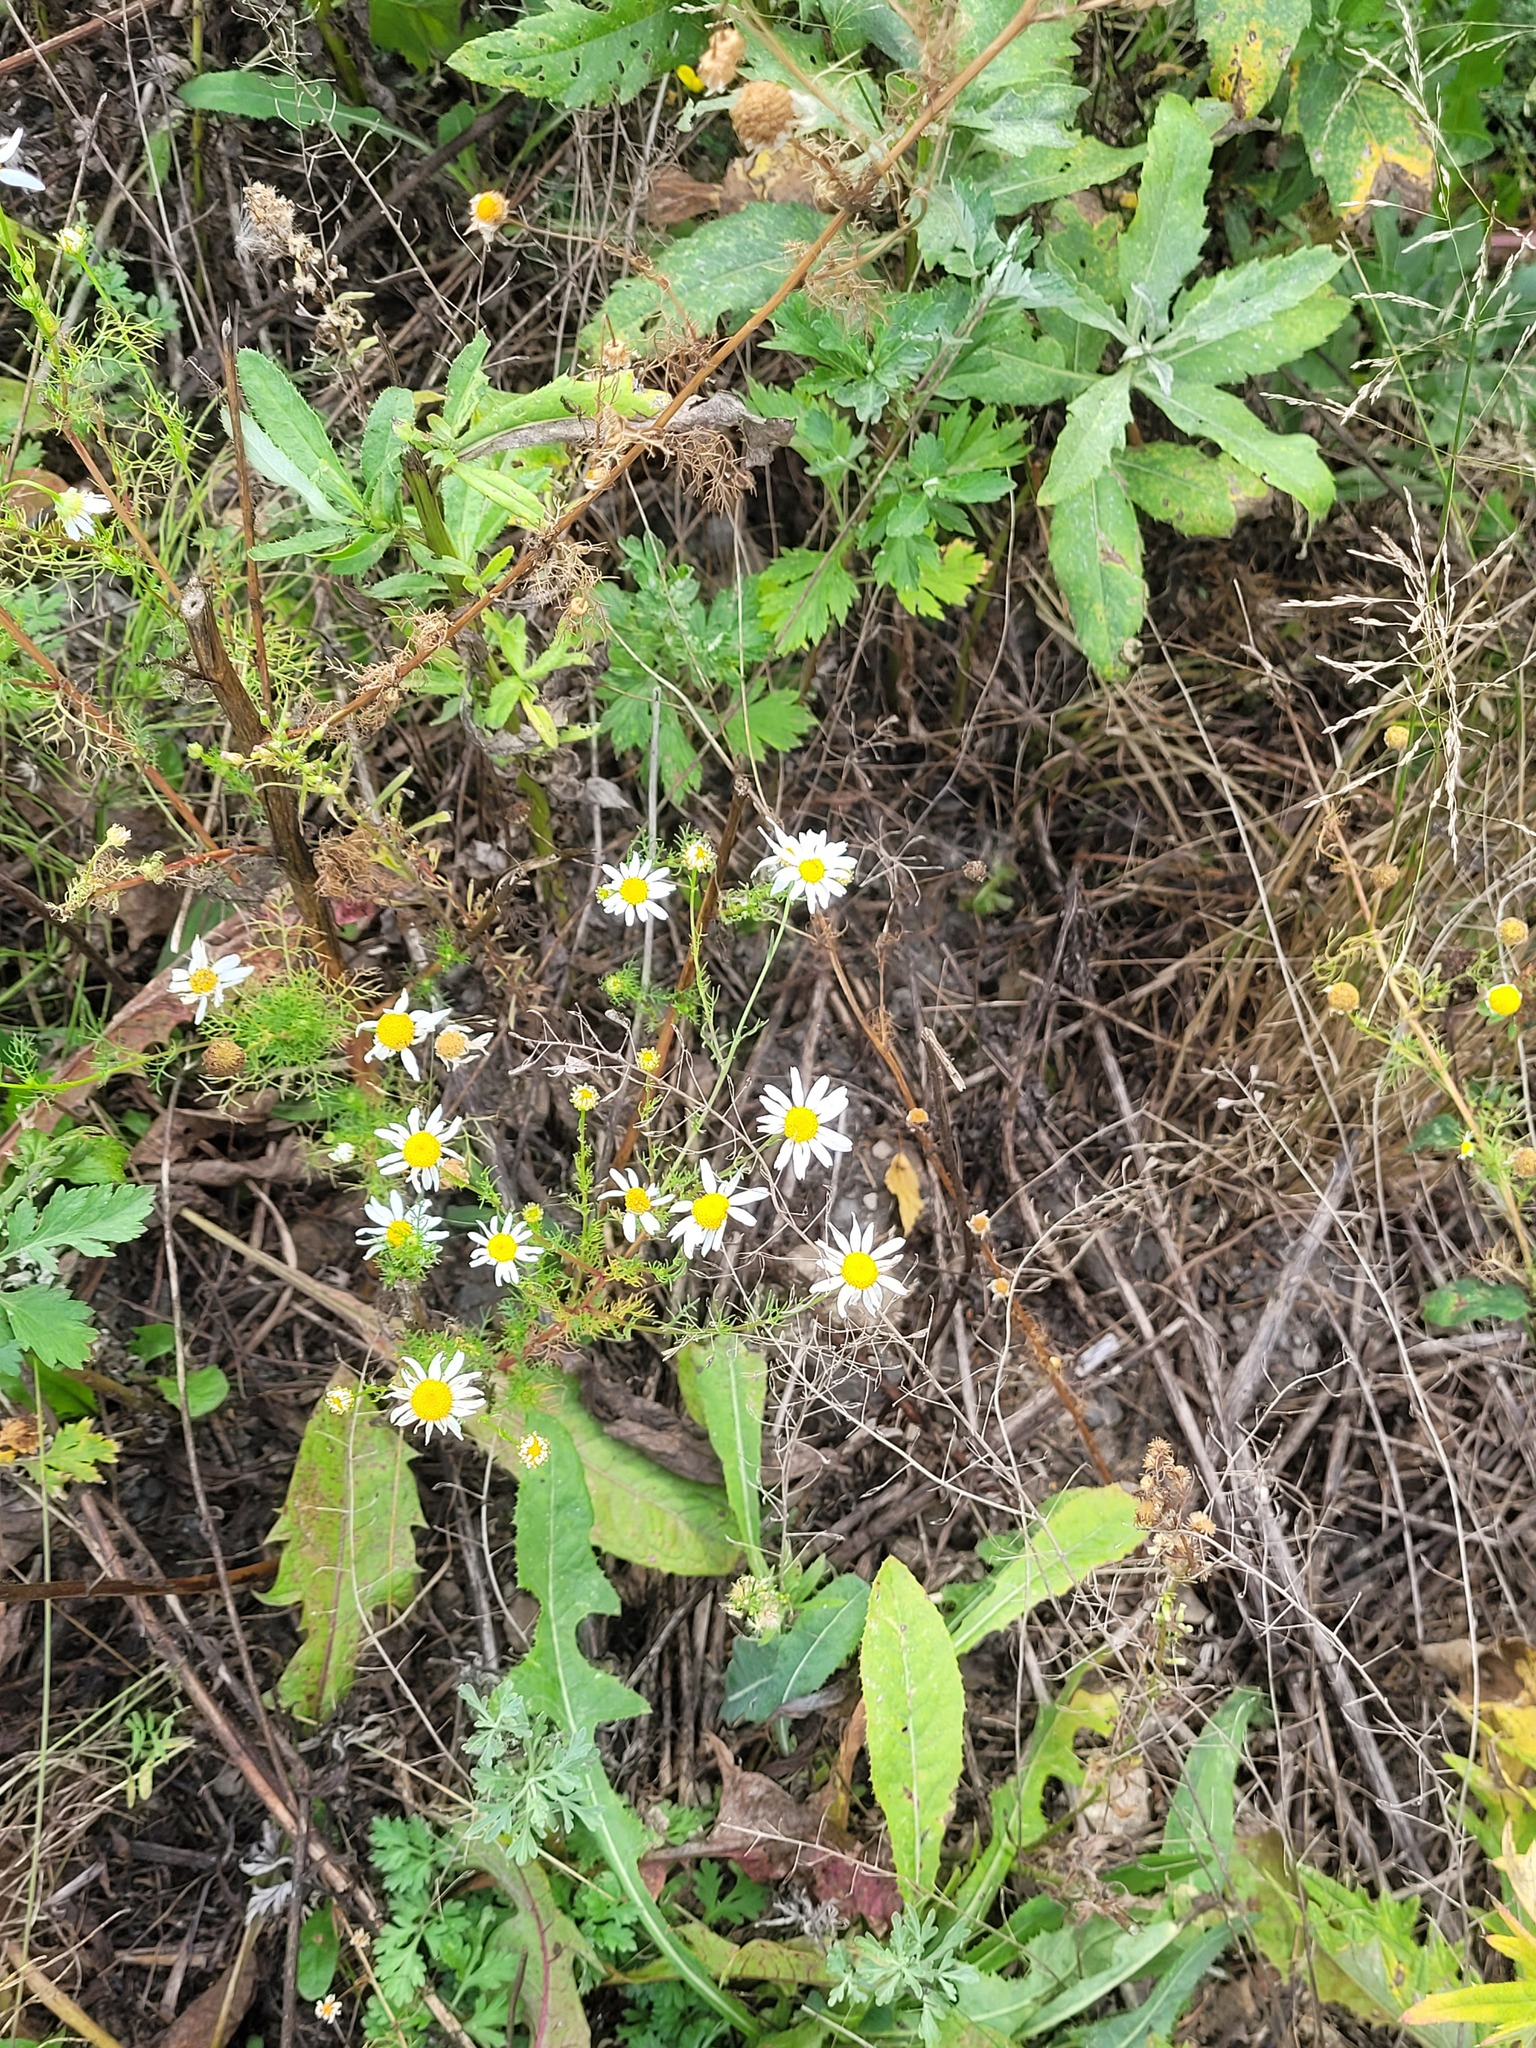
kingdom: Plantae
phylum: Tracheophyta
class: Magnoliopsida
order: Asterales
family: Asteraceae
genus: Tripleurospermum
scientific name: Tripleurospermum inodorum
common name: Scentless mayweed
